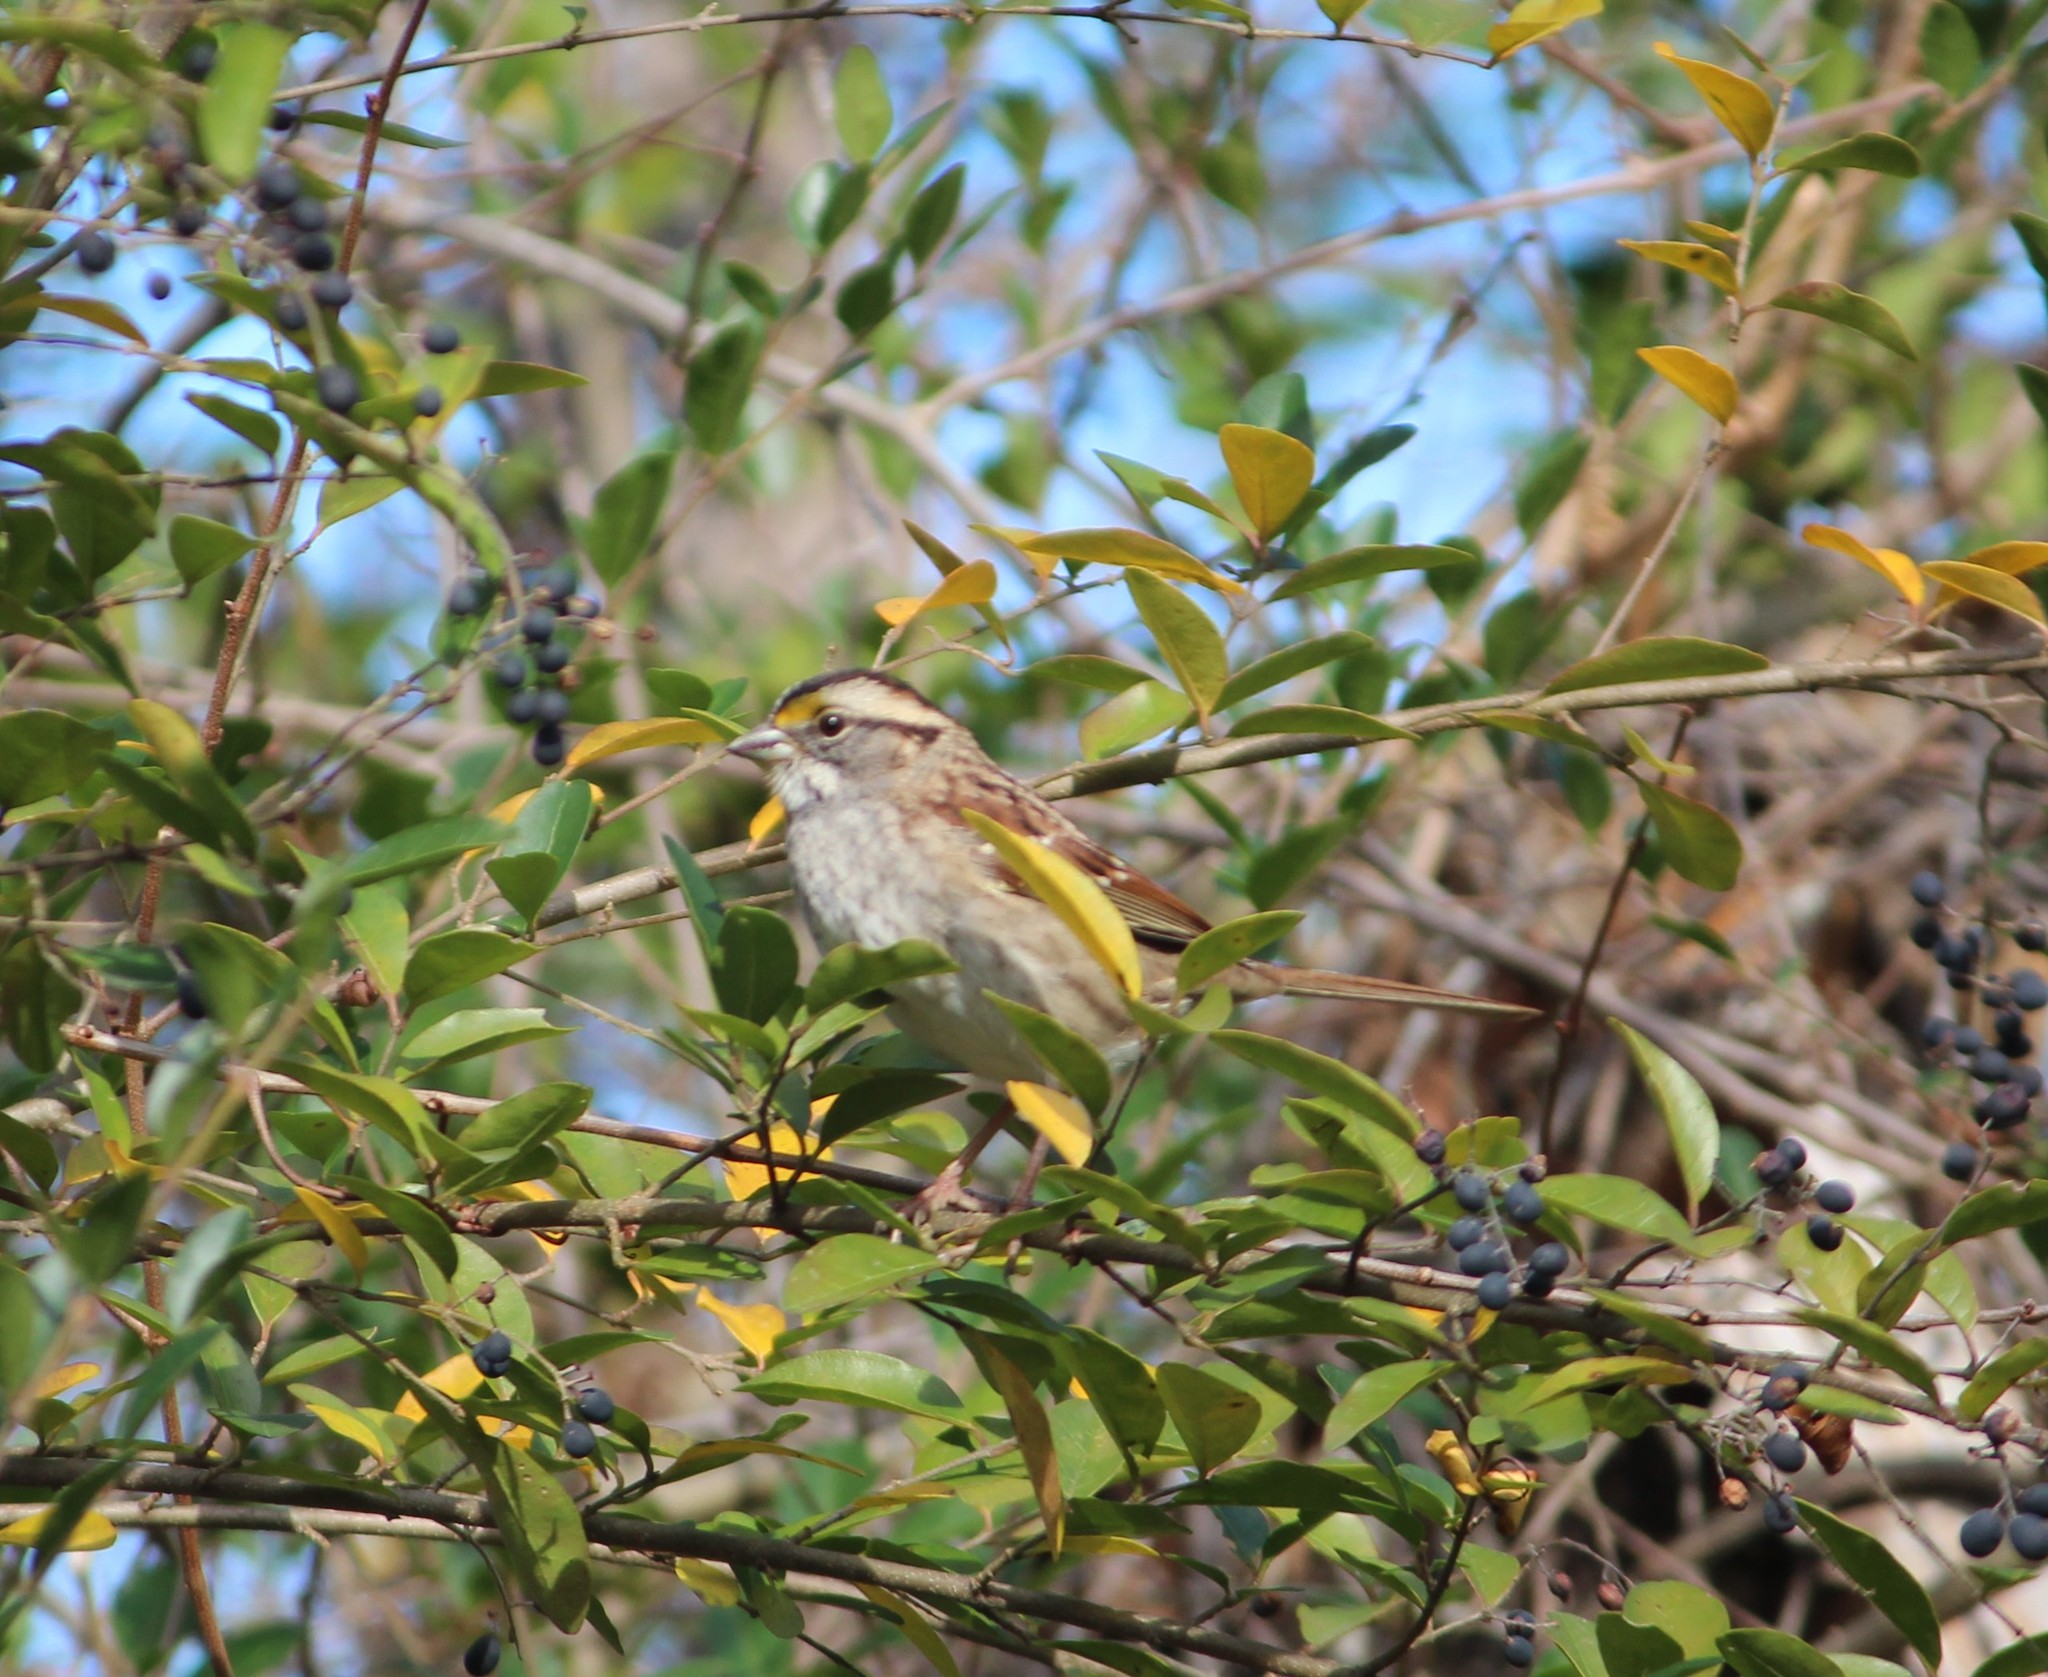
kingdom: Animalia
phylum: Chordata
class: Aves
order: Passeriformes
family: Passerellidae
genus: Zonotrichia
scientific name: Zonotrichia albicollis
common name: White-throated sparrow
